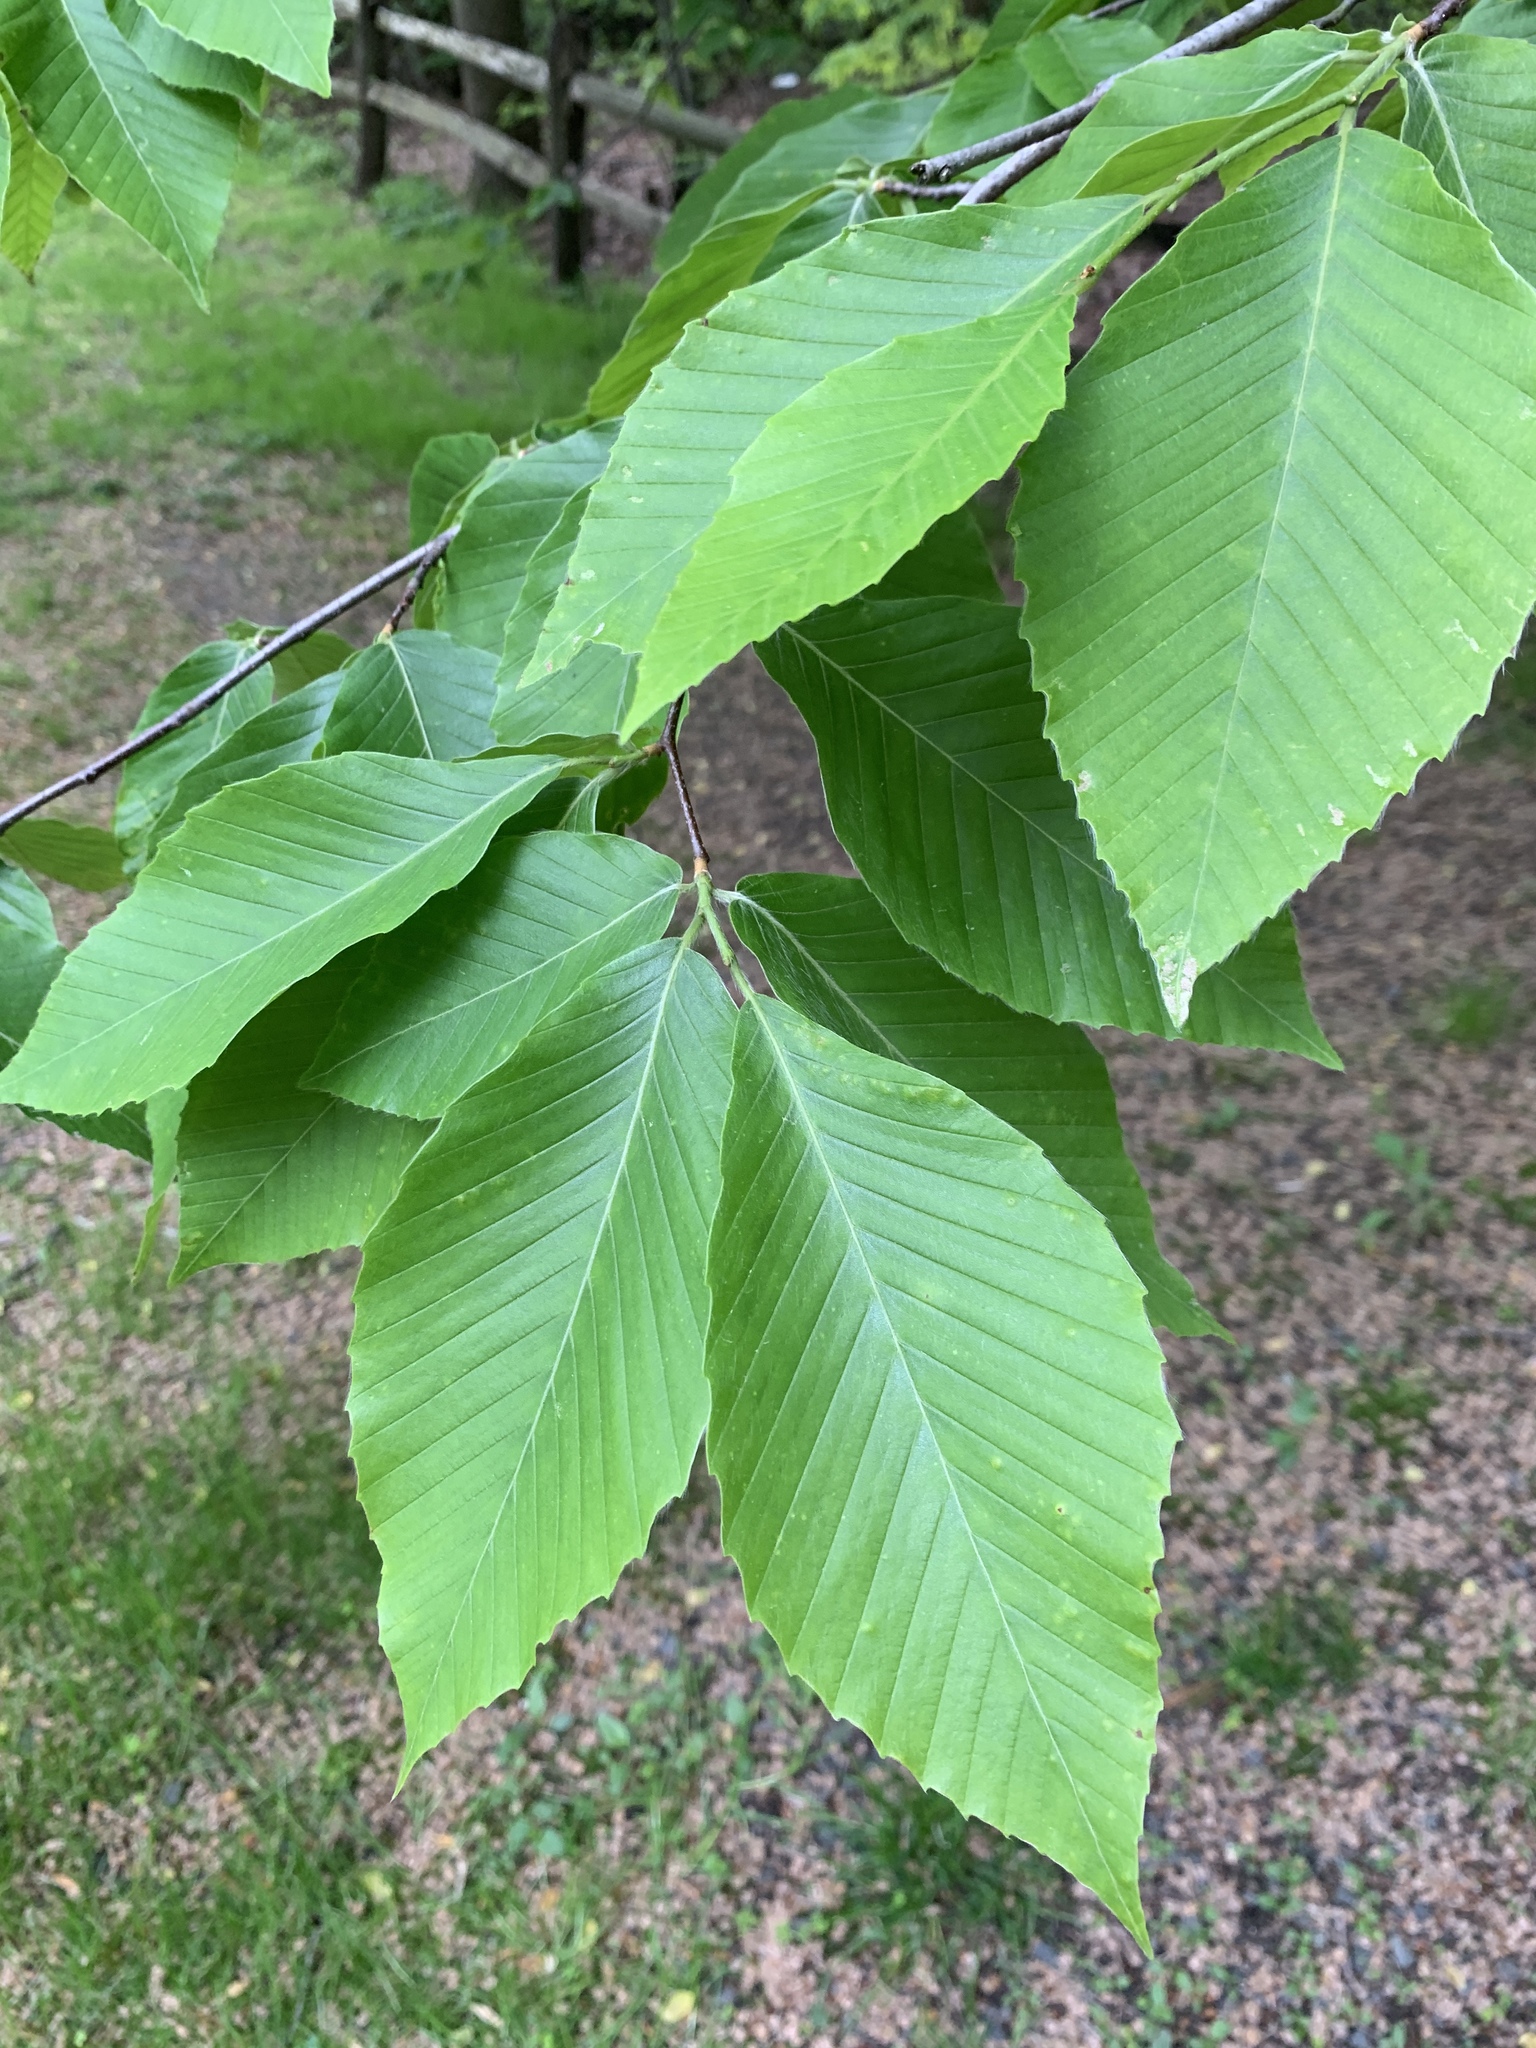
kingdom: Plantae
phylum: Tracheophyta
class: Magnoliopsida
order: Fagales
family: Fagaceae
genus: Fagus
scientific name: Fagus grandifolia
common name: American beech
